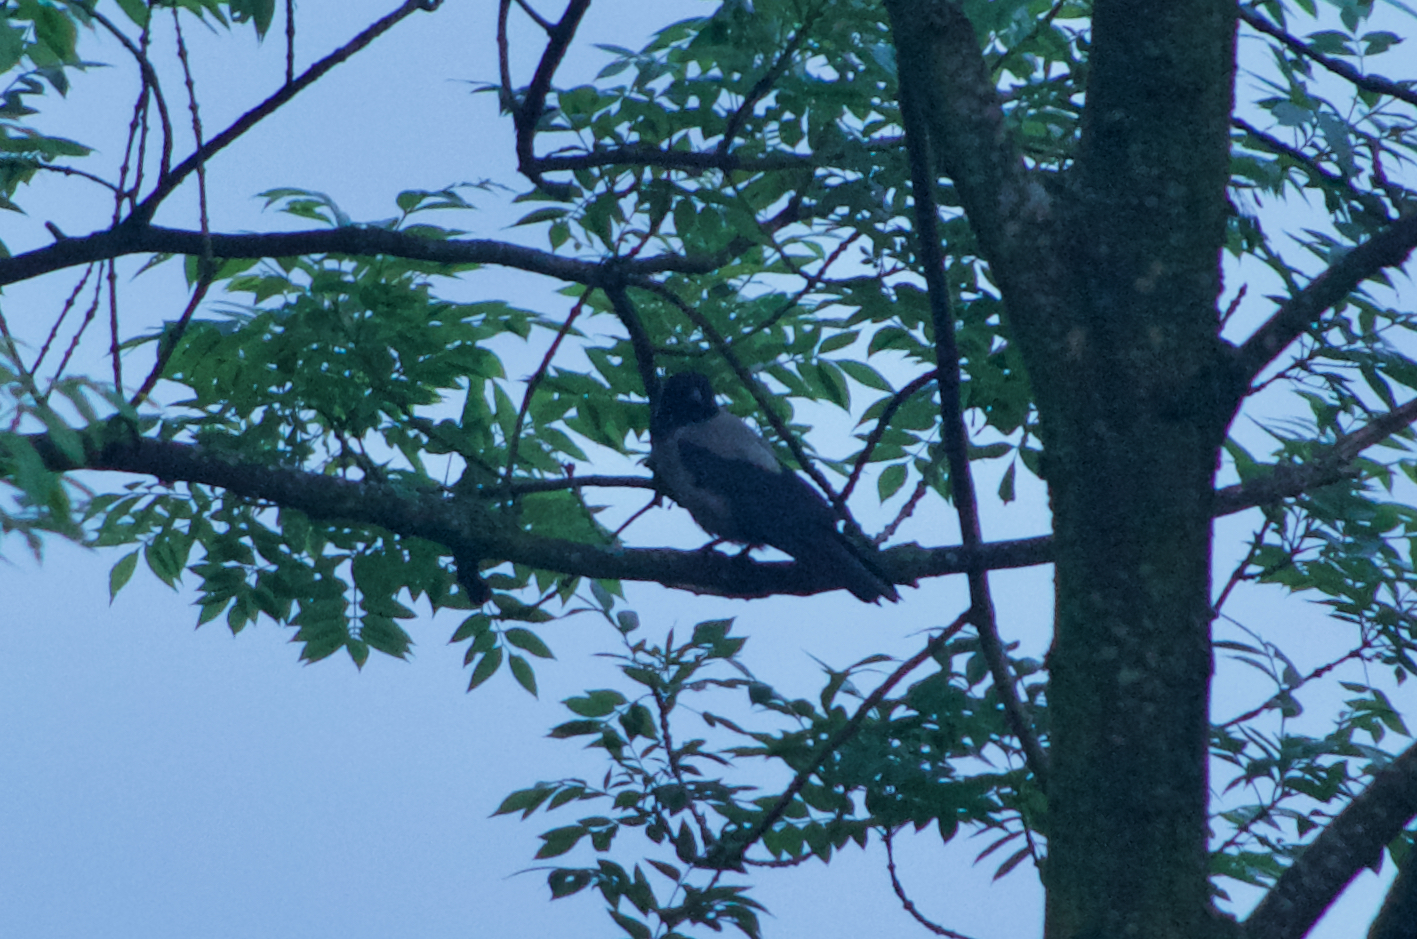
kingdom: Animalia
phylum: Chordata
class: Aves
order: Passeriformes
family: Corvidae
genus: Corvus
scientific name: Corvus cornix
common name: Hooded crow
